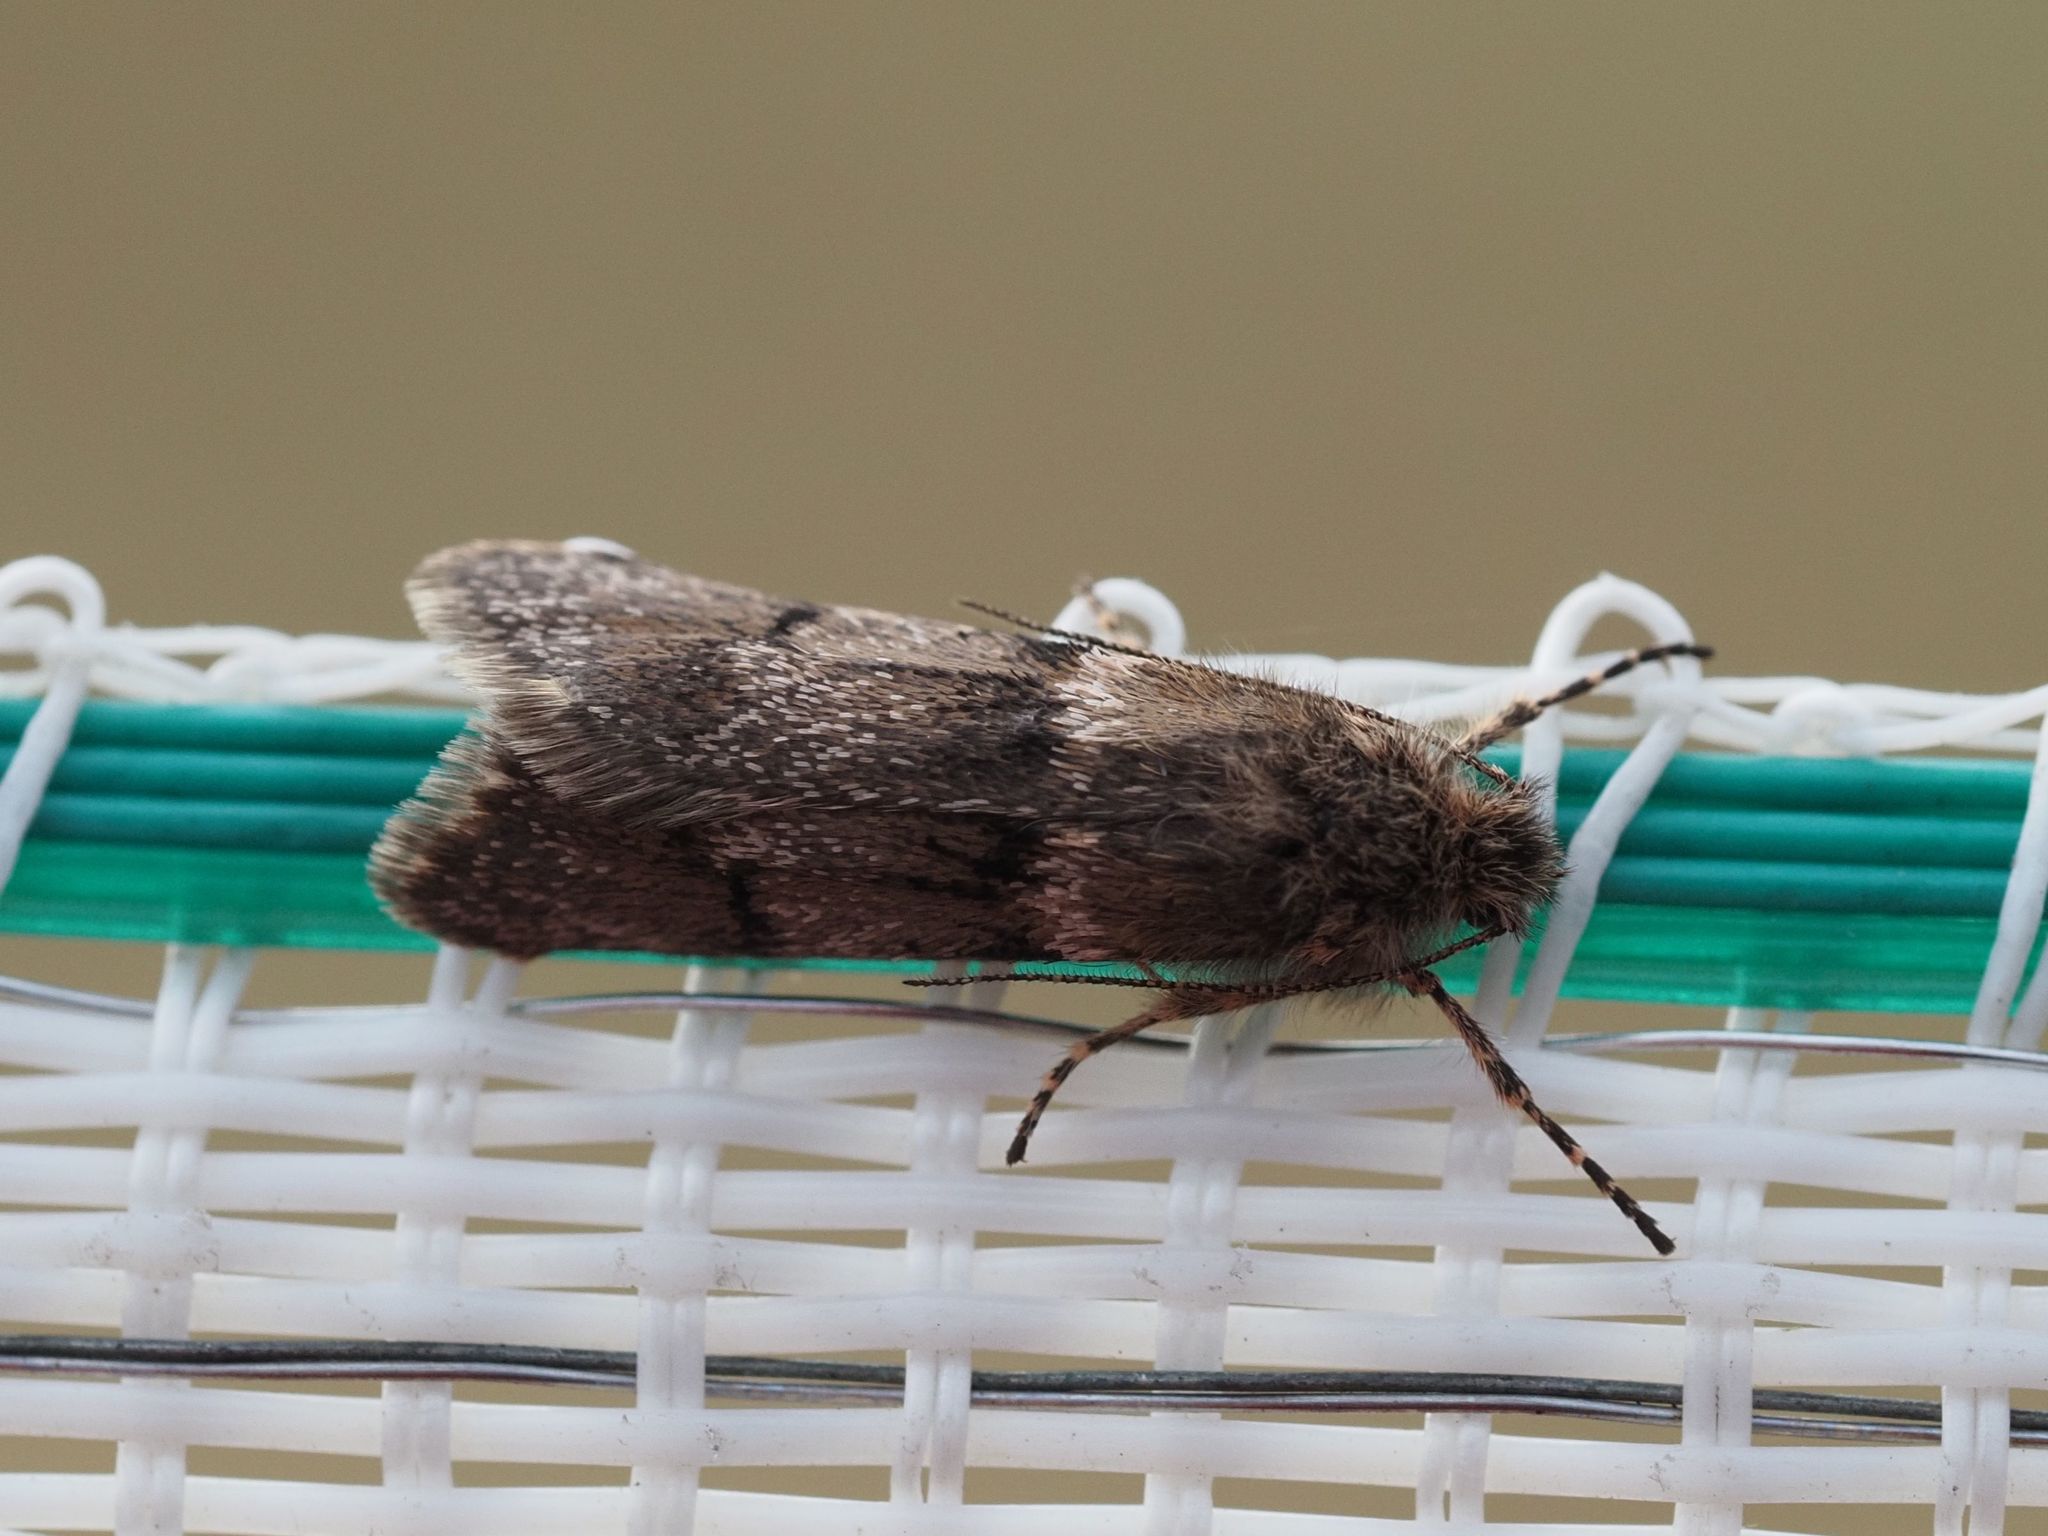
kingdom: Animalia
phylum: Arthropoda
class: Insecta
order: Lepidoptera
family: Tortricidae
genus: Tortricodes
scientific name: Tortricodes alternella
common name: Winter shade
